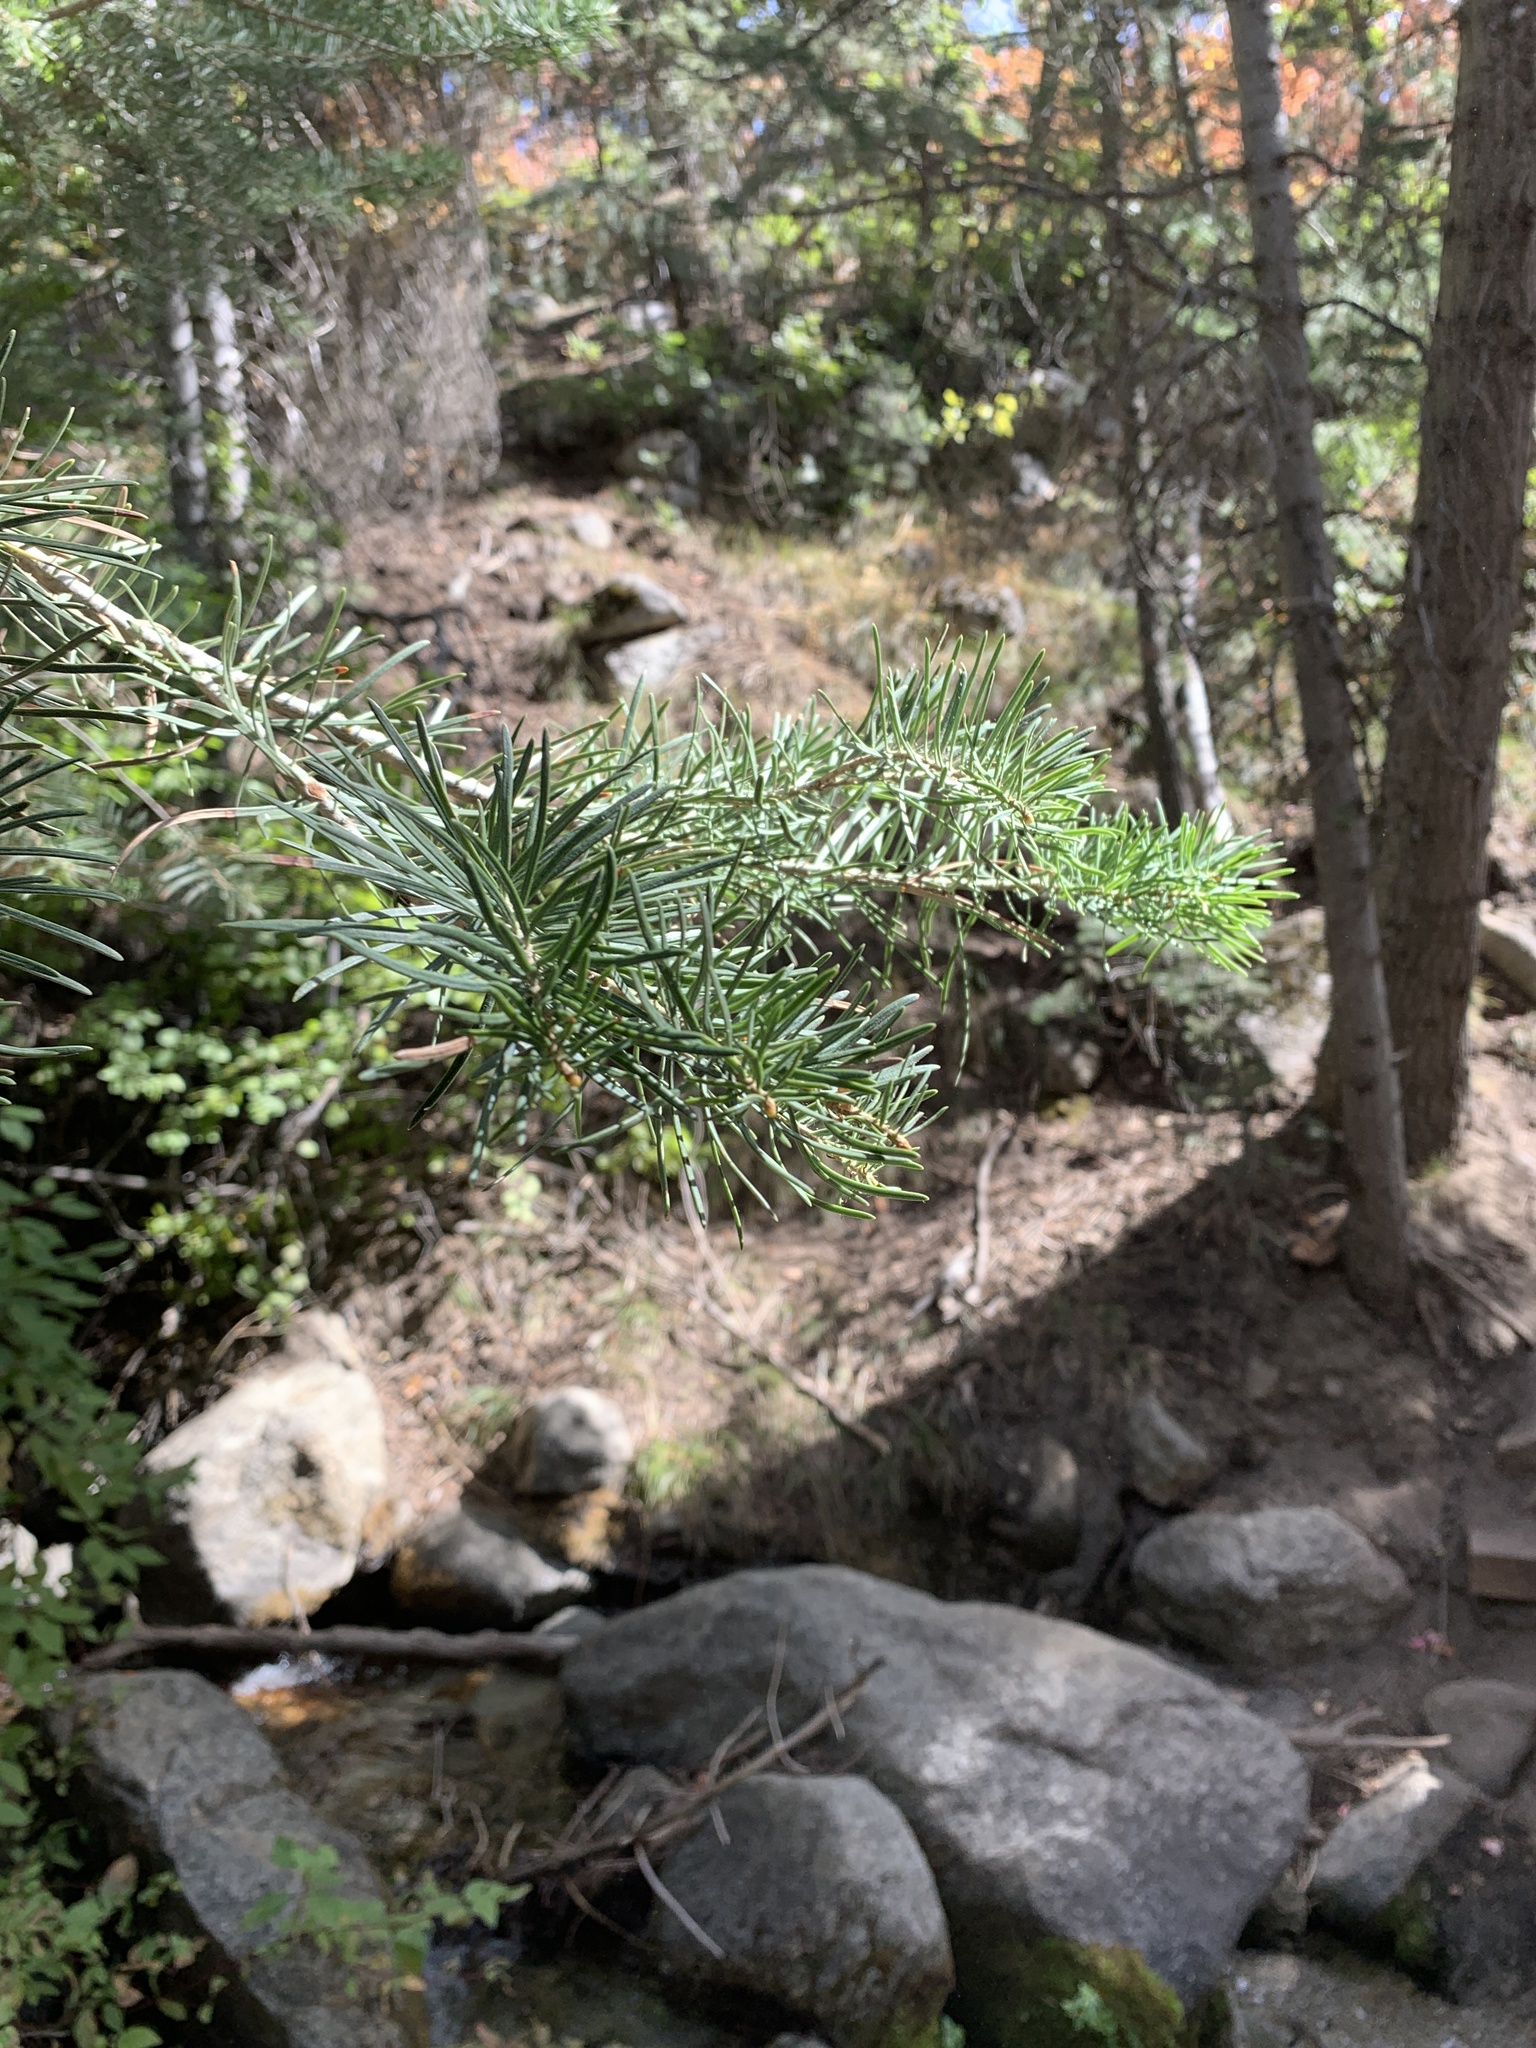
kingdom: Plantae
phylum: Tracheophyta
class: Pinopsida
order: Pinales
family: Pinaceae
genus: Abies
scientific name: Abies concolor
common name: Colorado fir
